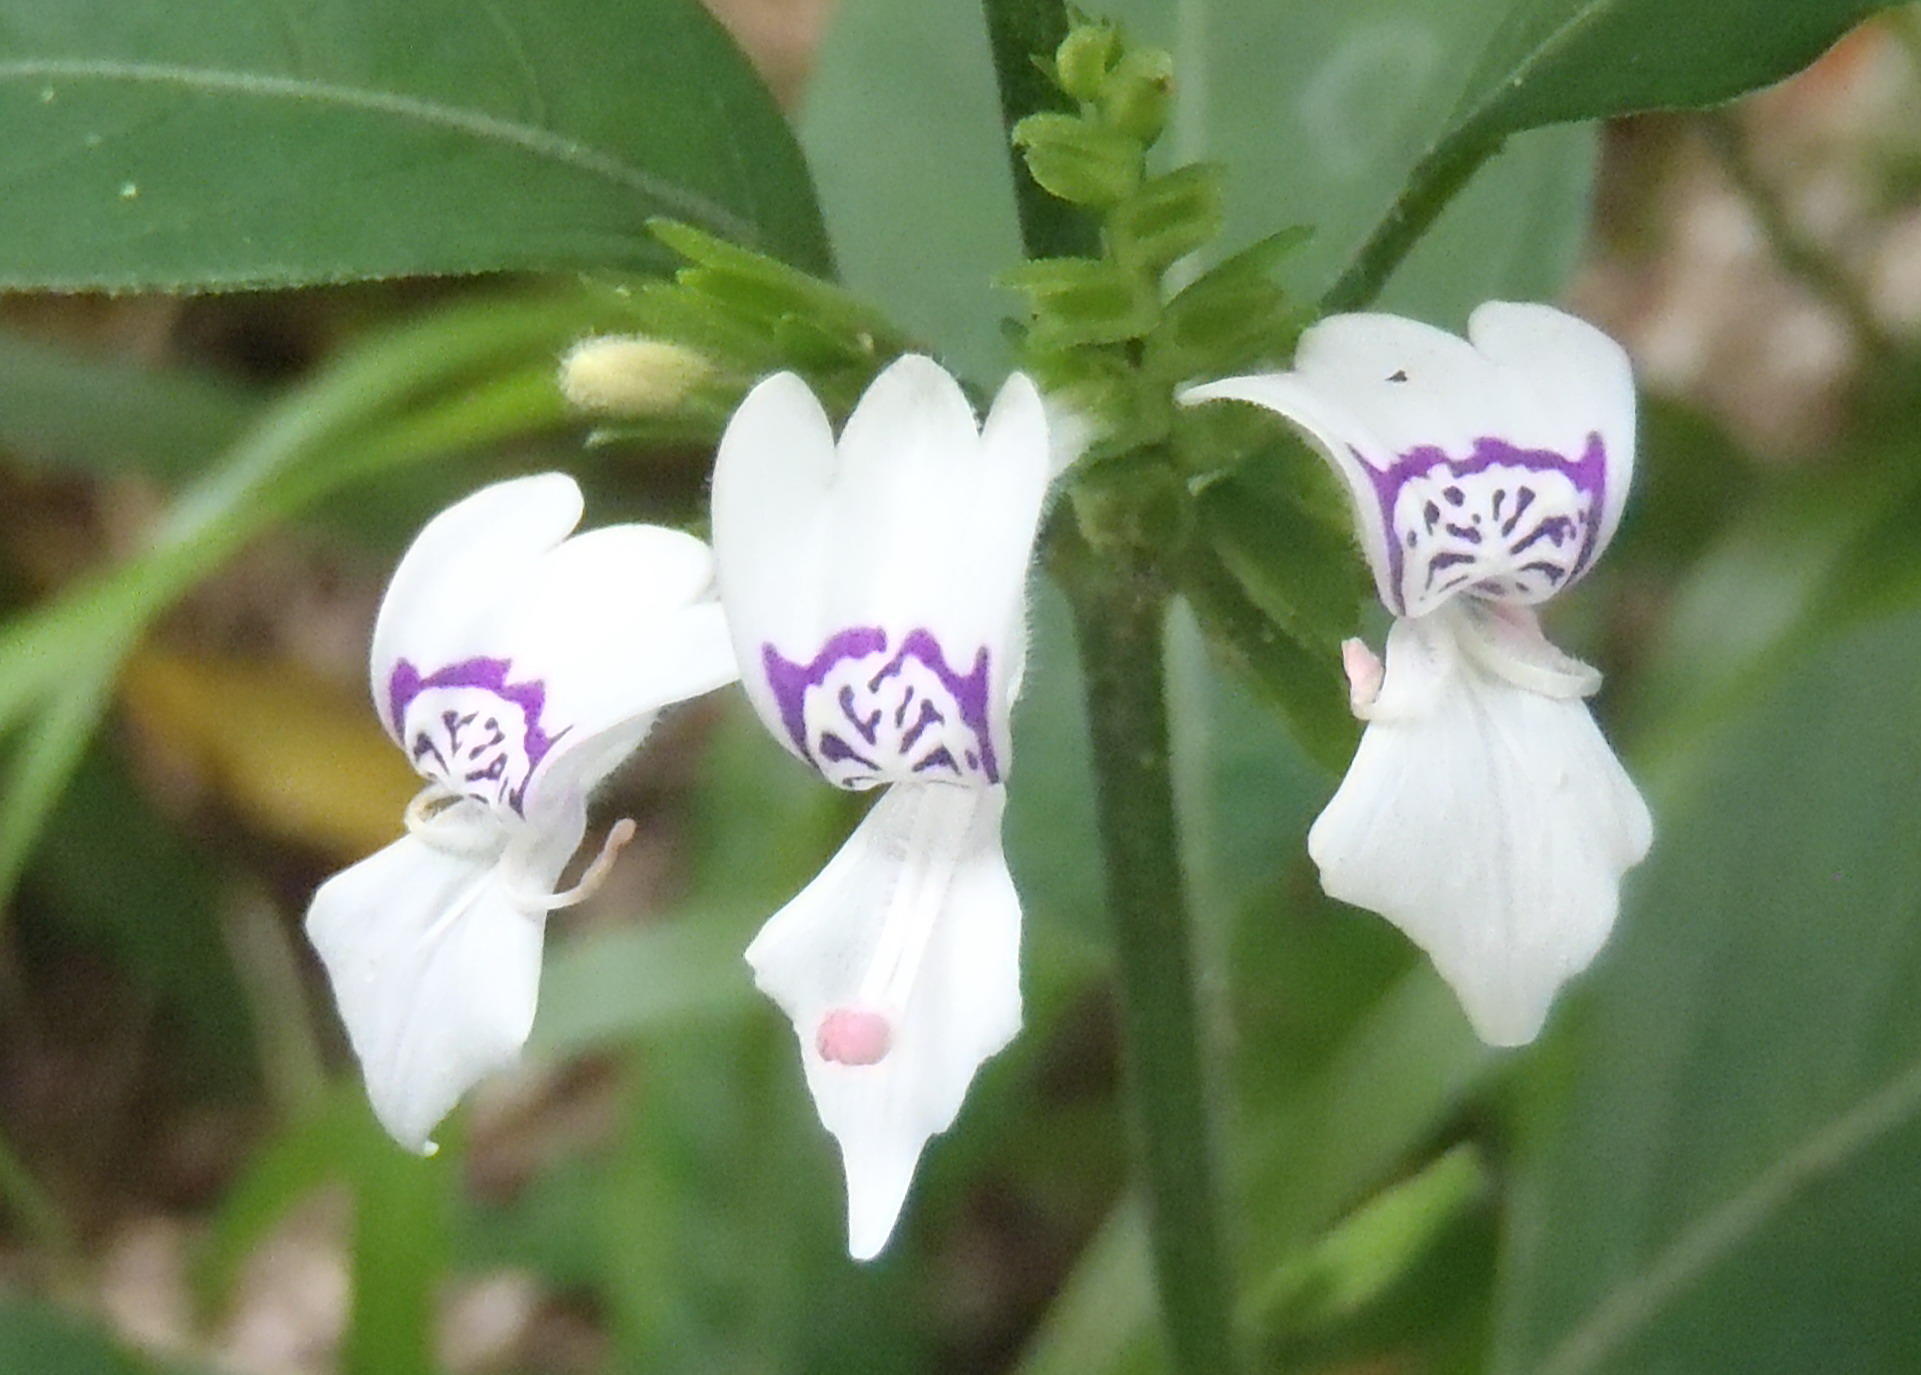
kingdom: Plantae
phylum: Tracheophyta
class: Magnoliopsida
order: Lamiales
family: Acanthaceae
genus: Hypoestes
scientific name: Hypoestes forskaolii
